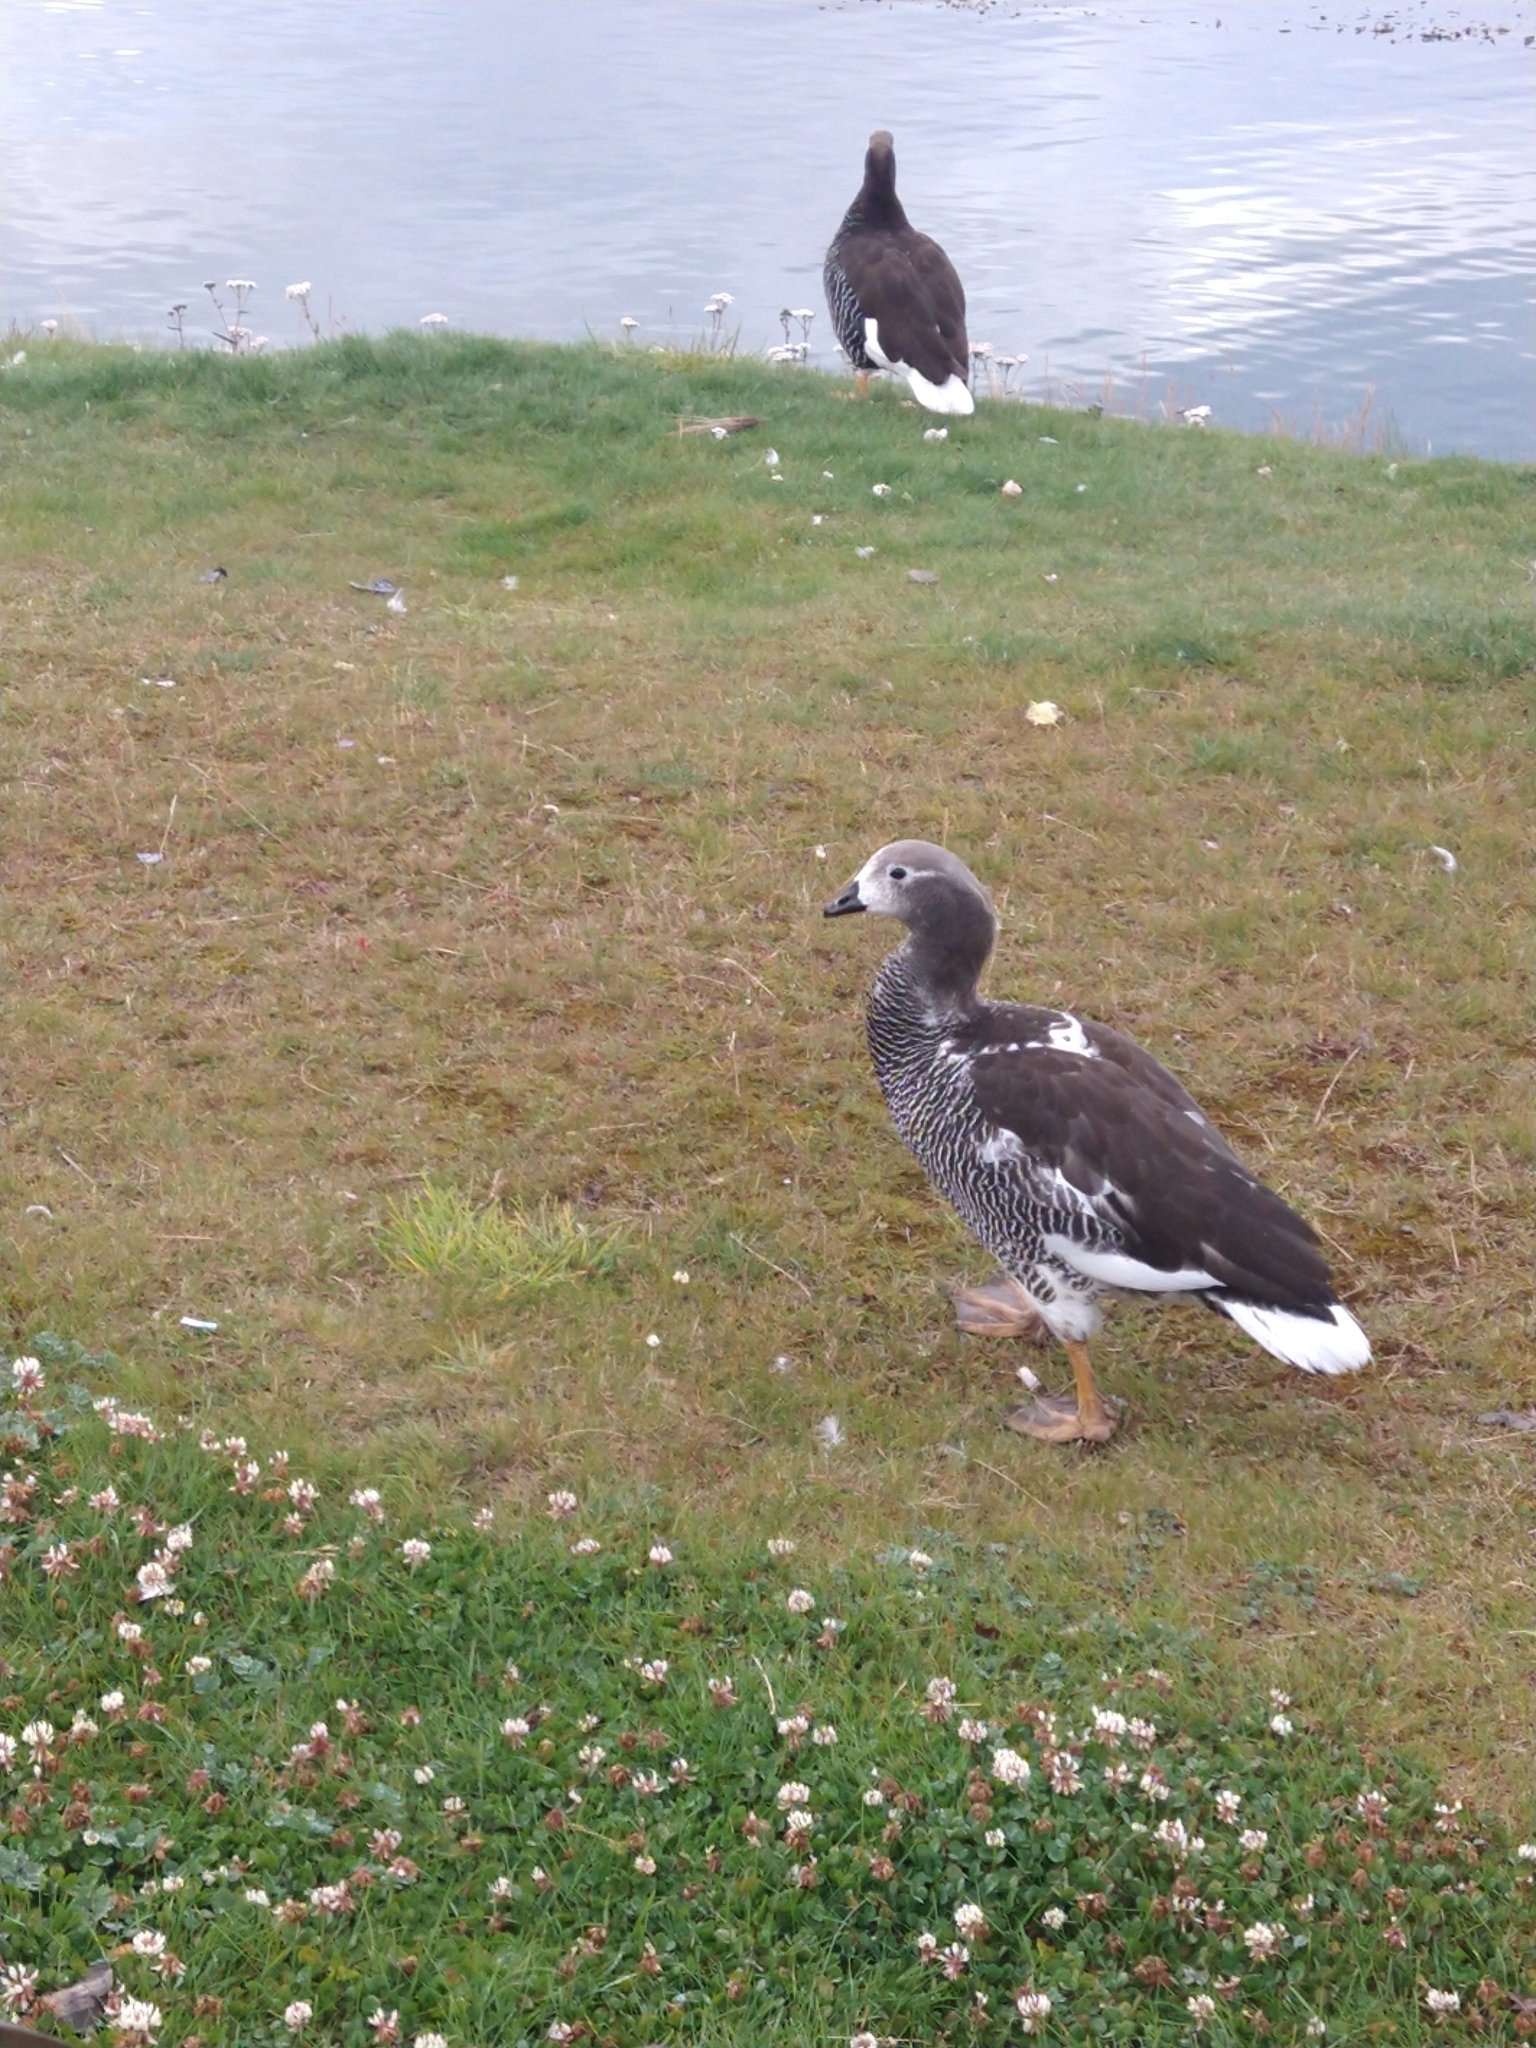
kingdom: Animalia
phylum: Chordata
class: Aves
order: Anseriformes
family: Anatidae
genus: Chloephaga
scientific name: Chloephaga hybrida
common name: Kelp goose
